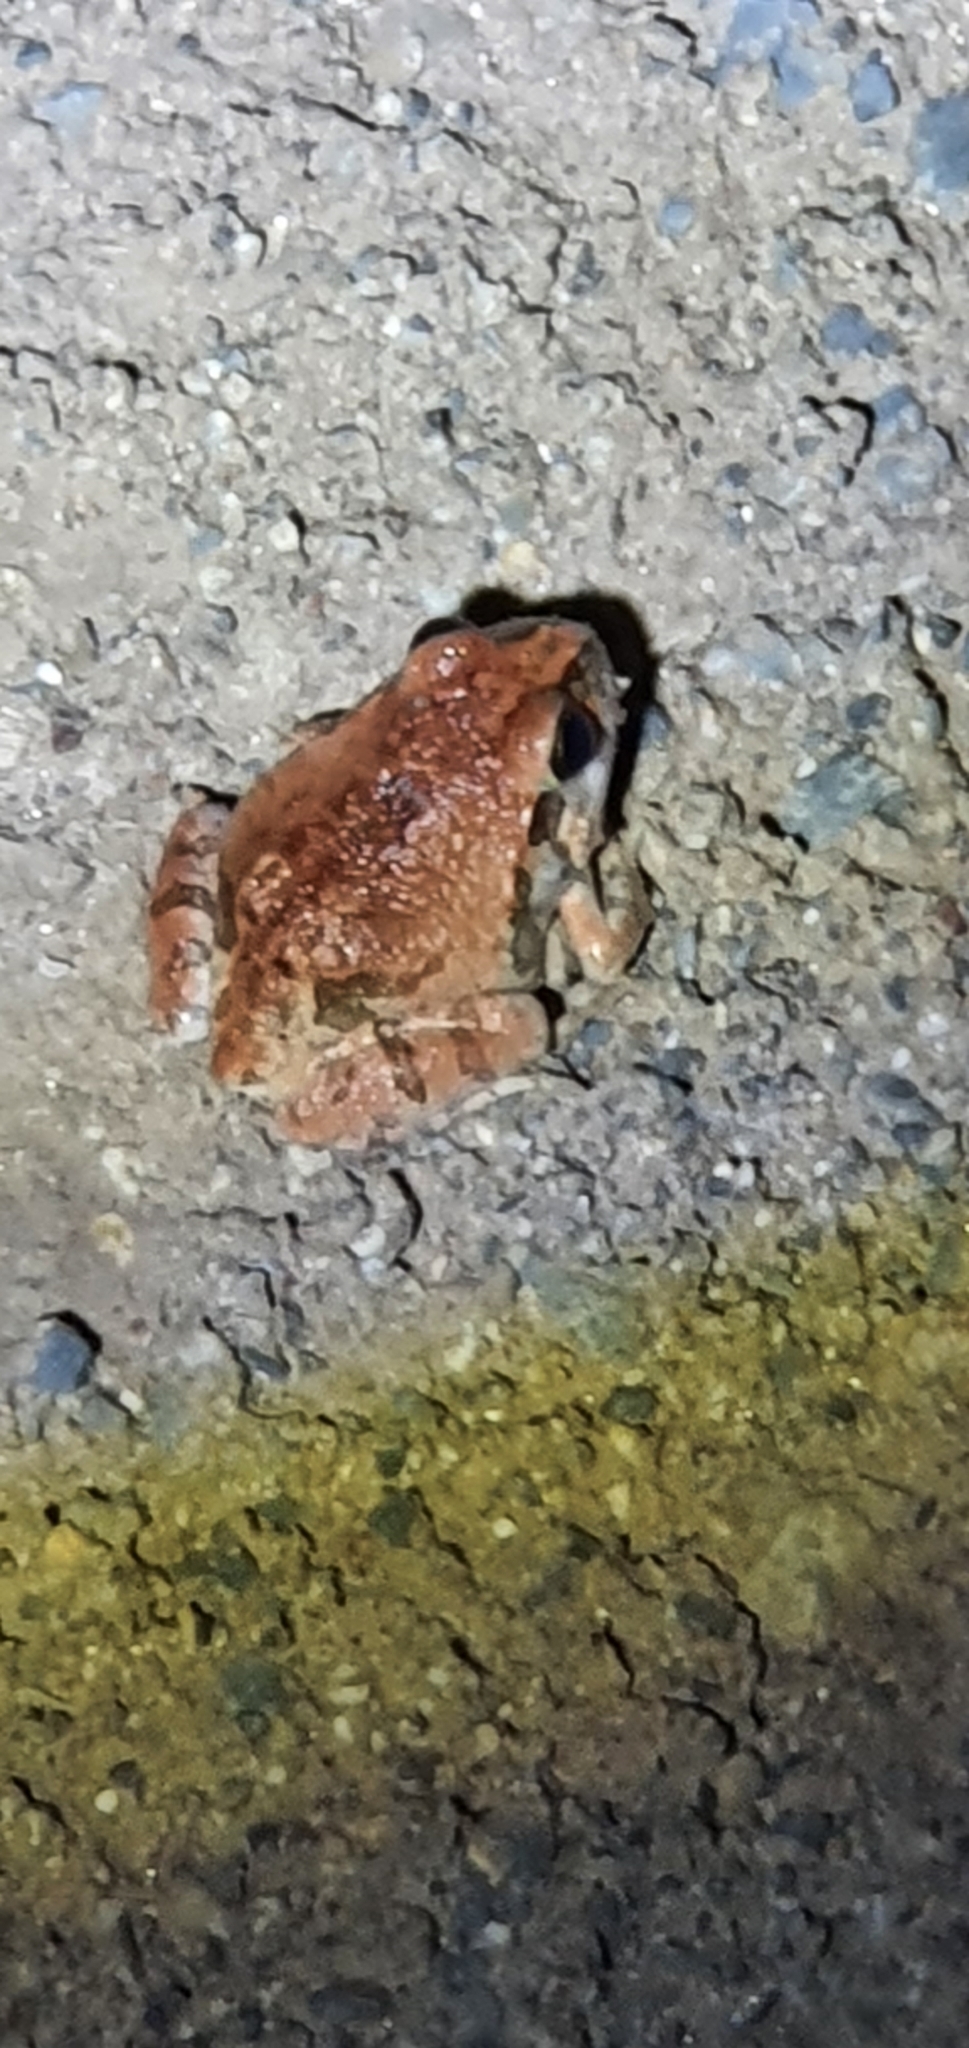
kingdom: Animalia
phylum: Chordata
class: Amphibia
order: Anura
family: Limnodynastidae
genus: Platyplectrum
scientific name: Platyplectrum ornatum
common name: Ornate burrowing frog
